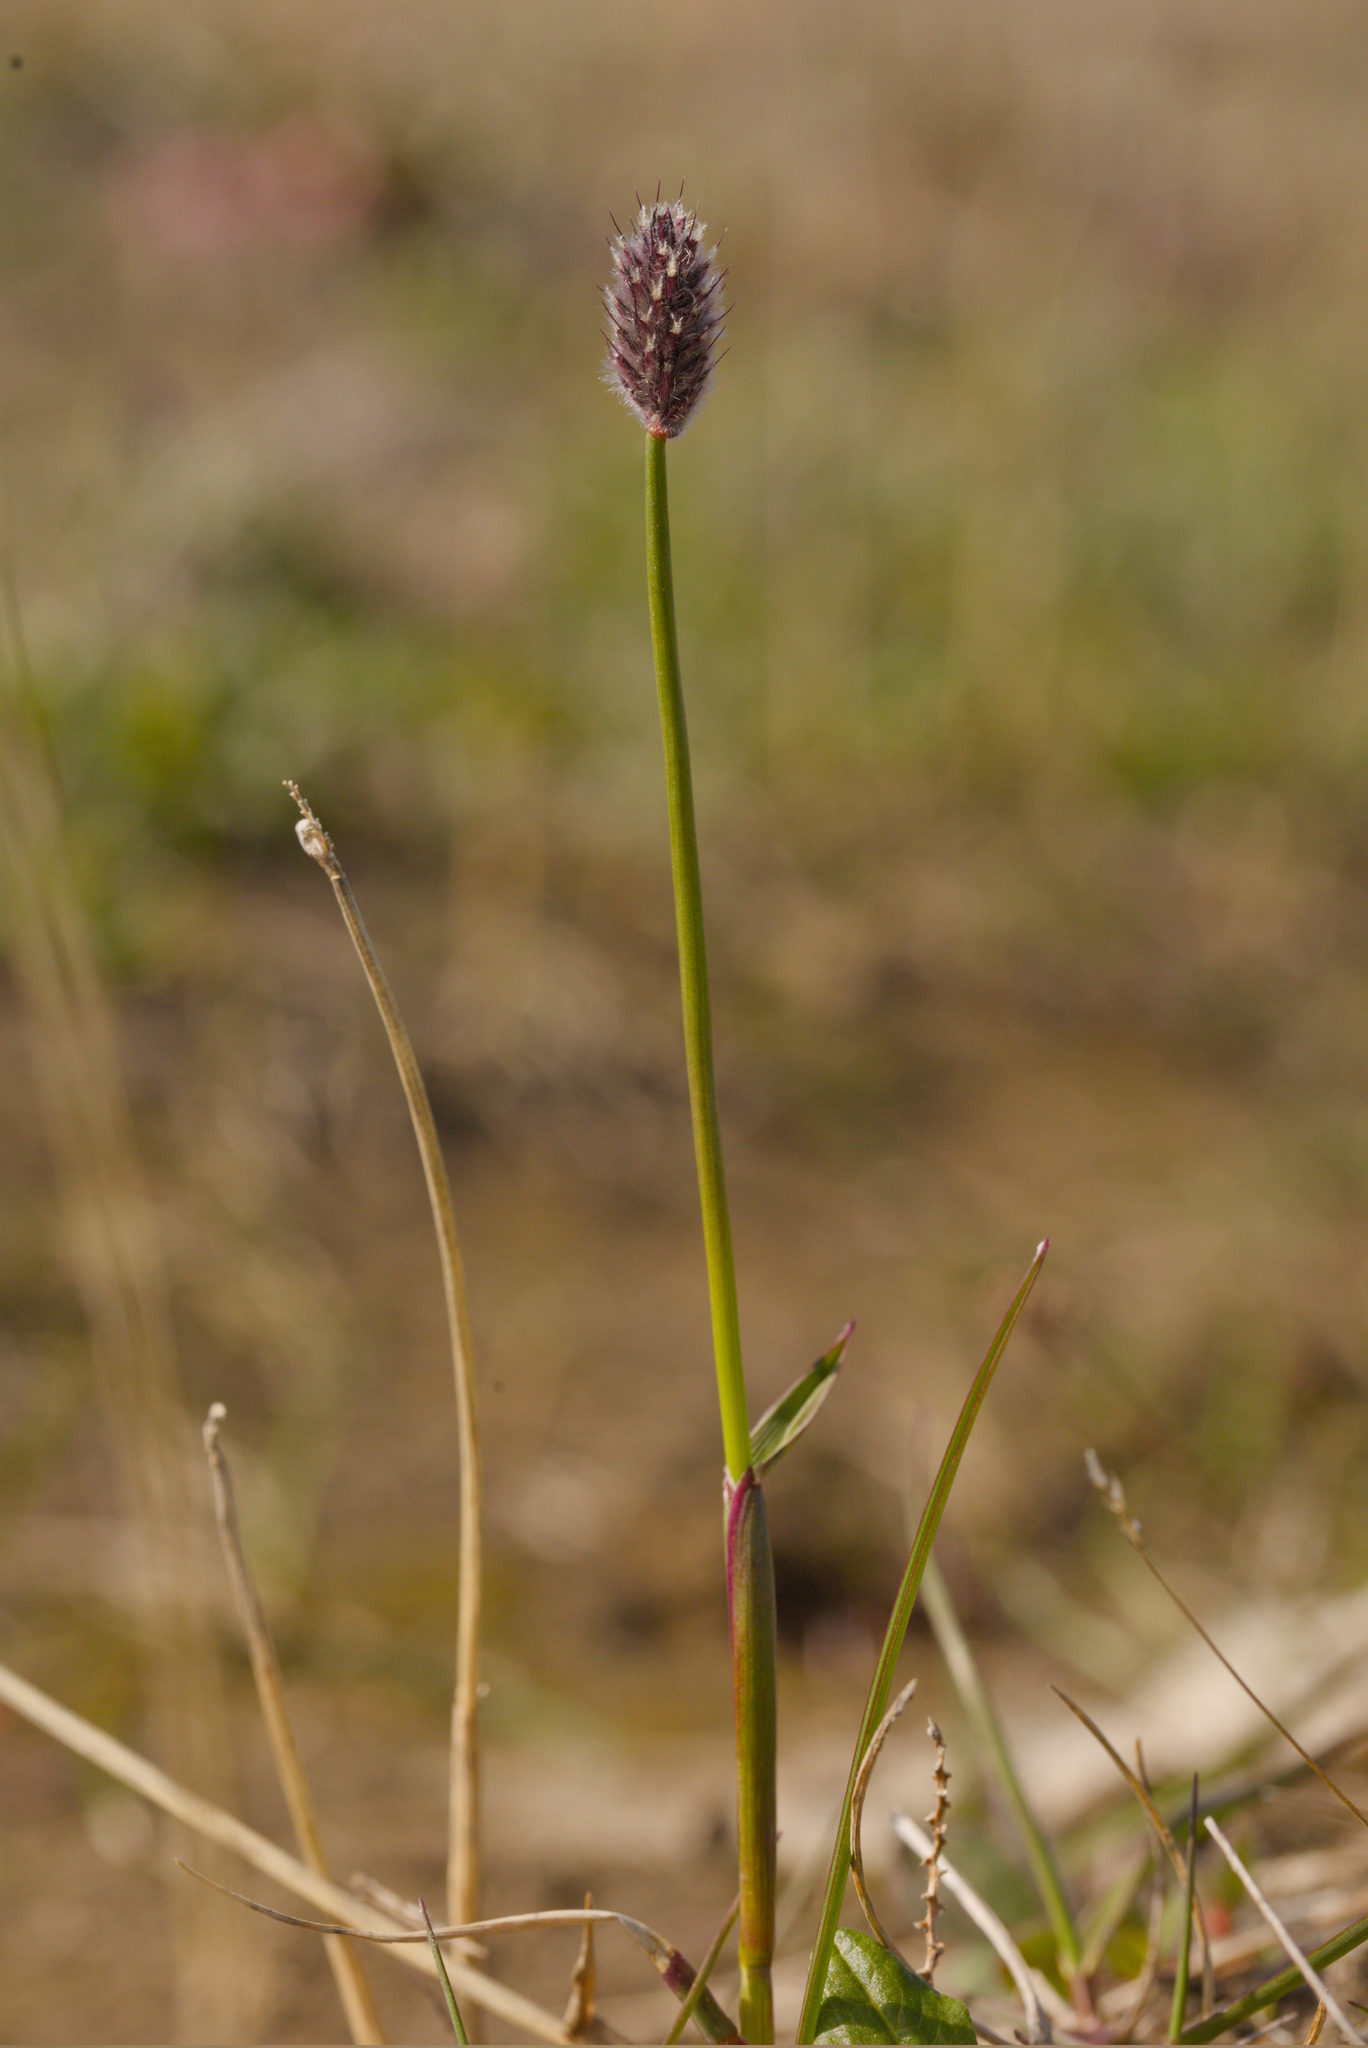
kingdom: Plantae
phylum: Tracheophyta
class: Liliopsida
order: Poales
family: Poaceae
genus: Alopecurus
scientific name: Alopecurus magellanicus
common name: Alpine foxtail
